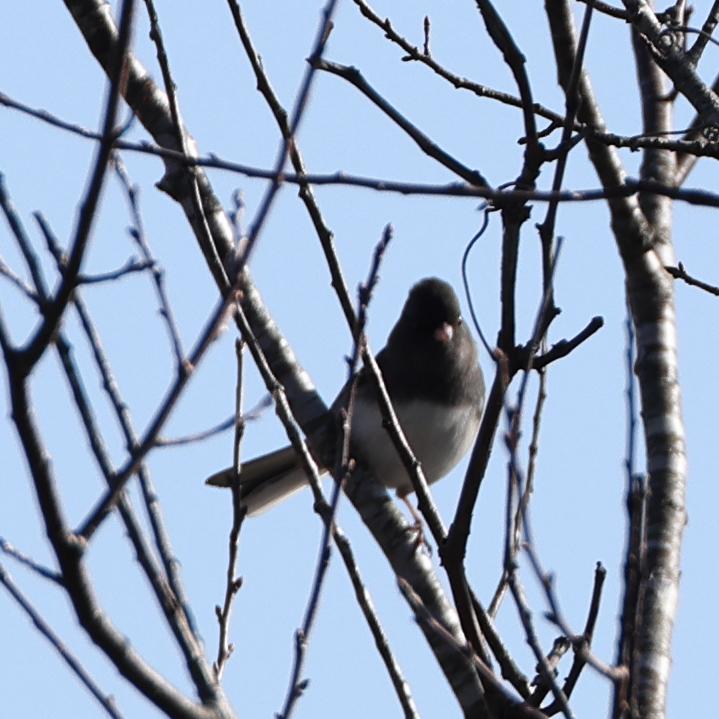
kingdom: Animalia
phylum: Chordata
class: Aves
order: Passeriformes
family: Passerellidae
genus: Junco
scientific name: Junco hyemalis
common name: Dark-eyed junco
